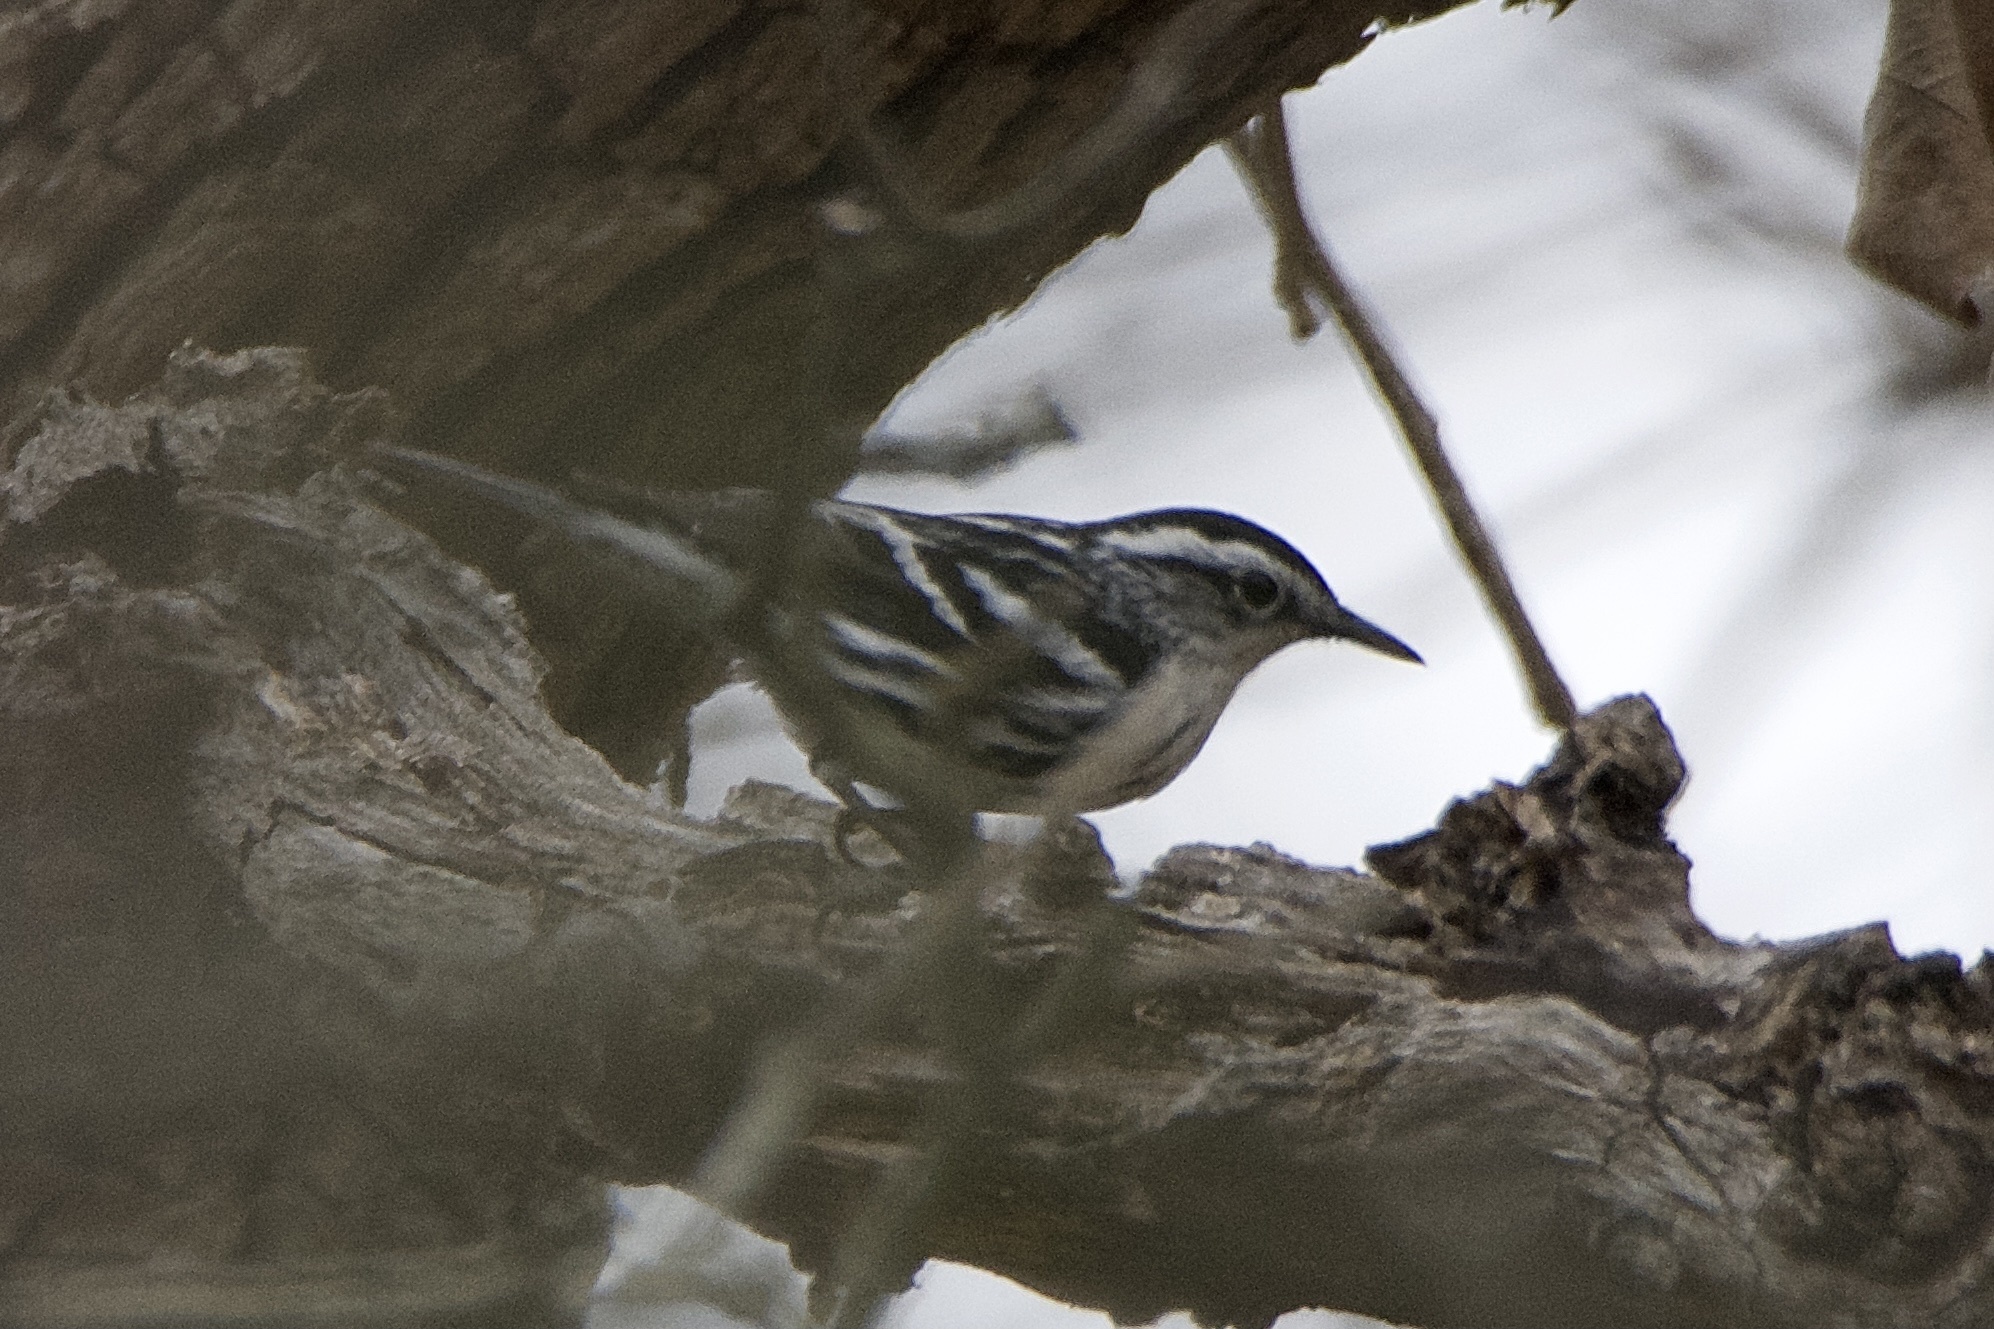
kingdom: Animalia
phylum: Chordata
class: Aves
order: Passeriformes
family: Parulidae
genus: Mniotilta
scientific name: Mniotilta varia
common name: Black-and-white warbler
